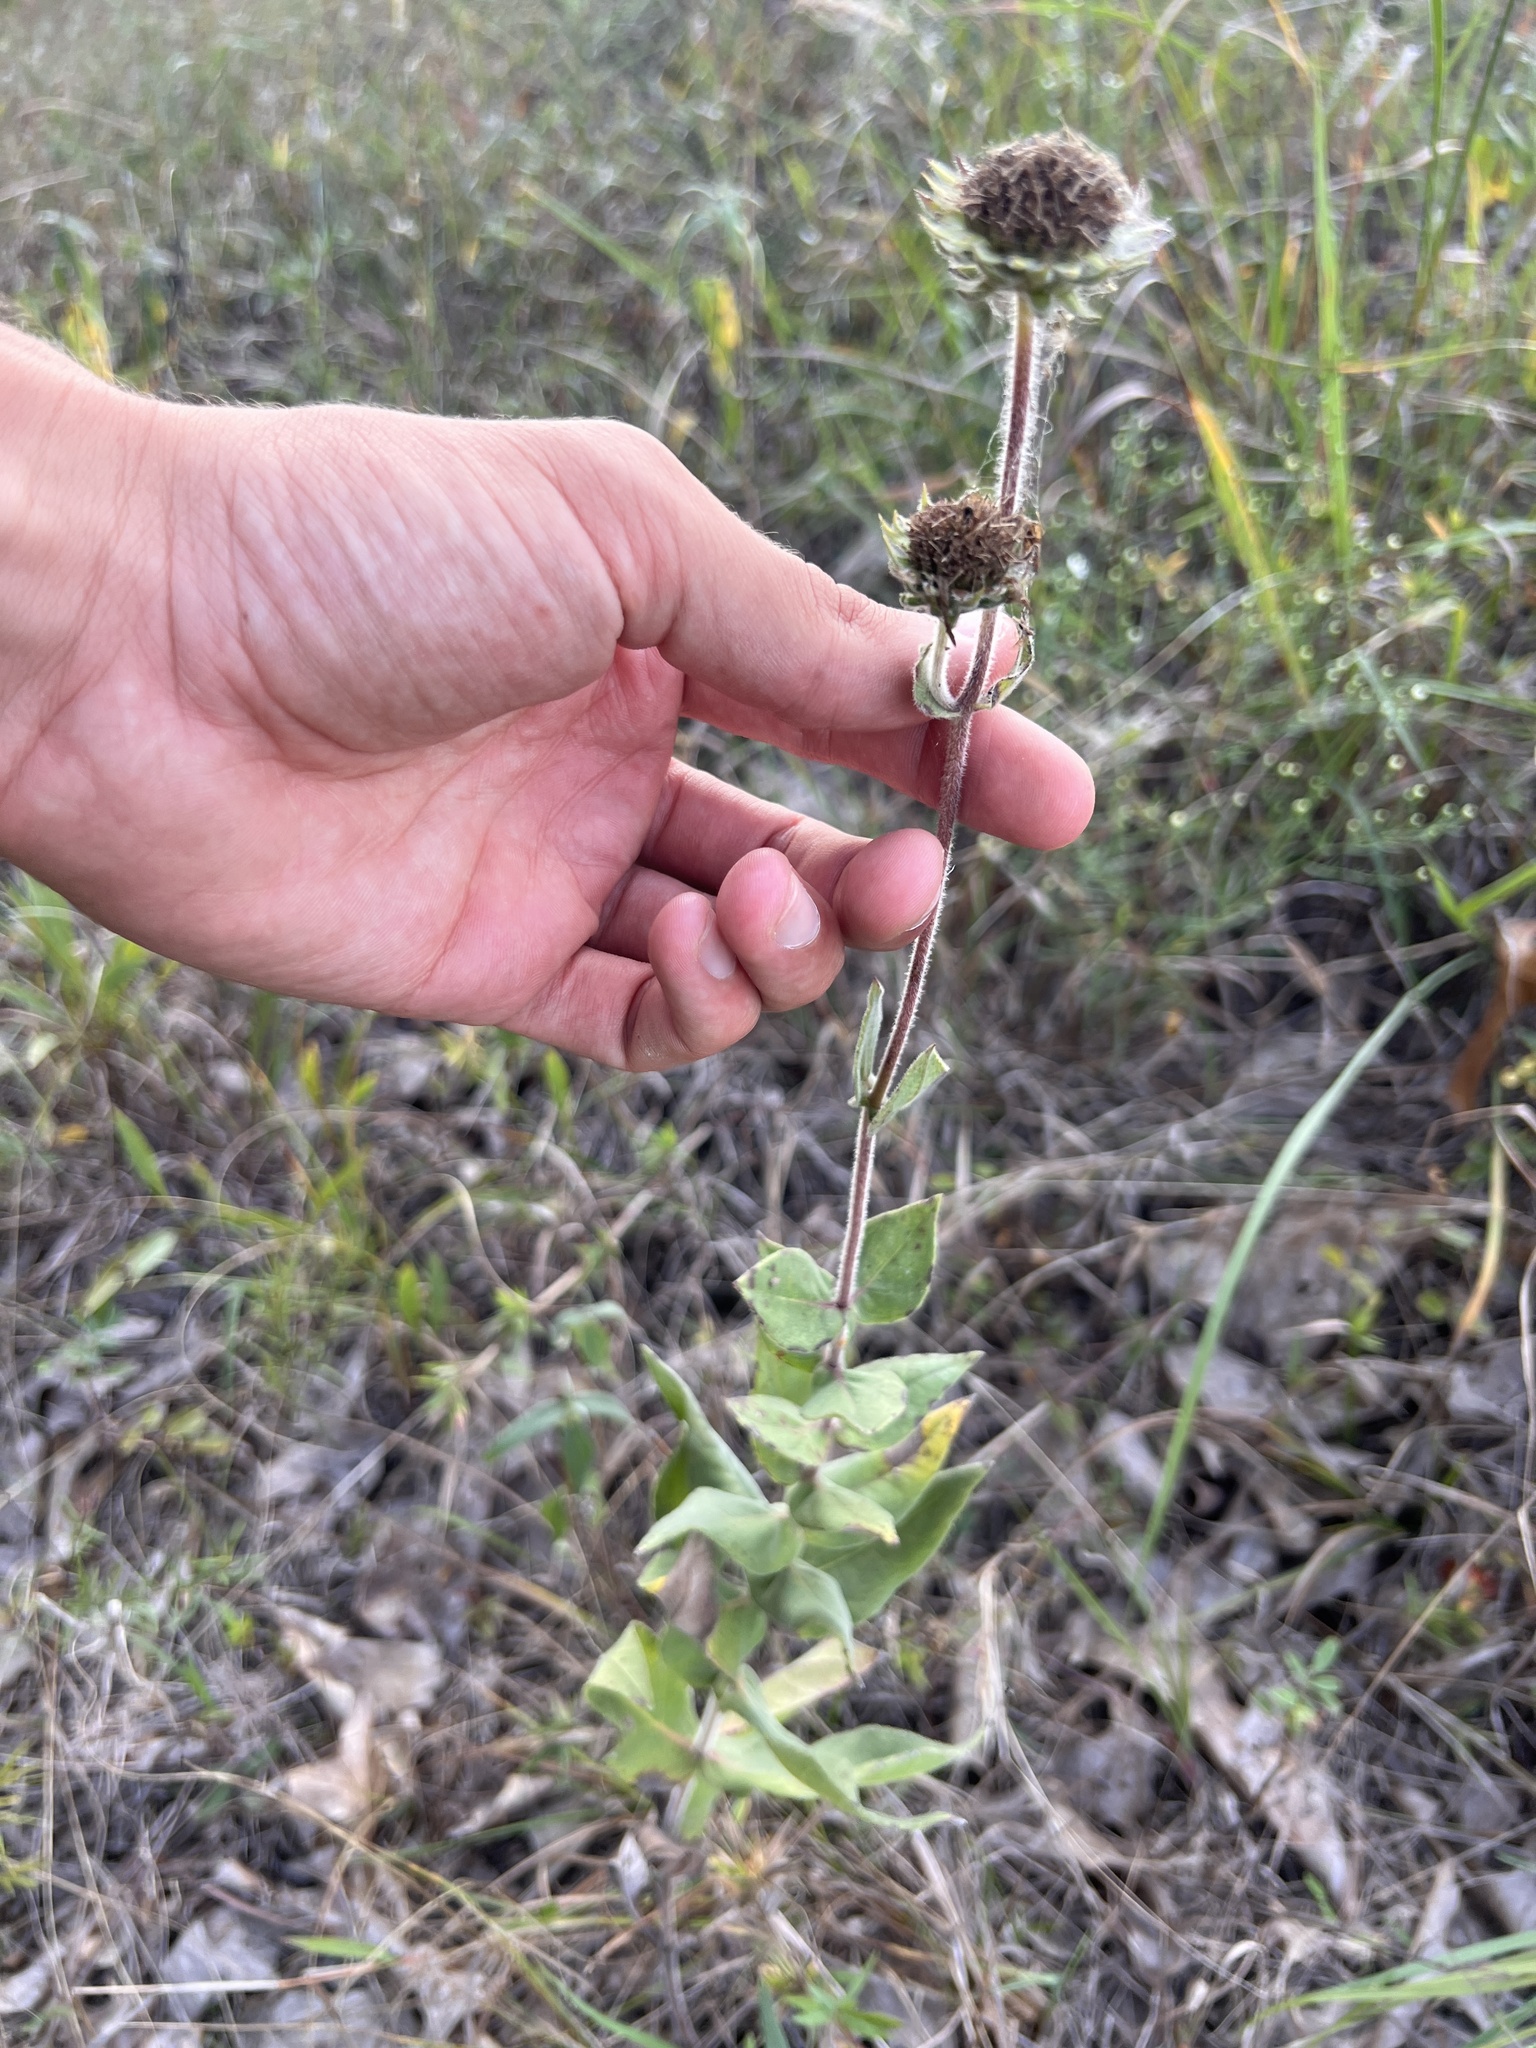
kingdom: Plantae
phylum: Tracheophyta
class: Magnoliopsida
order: Asterales
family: Asteraceae
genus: Helianthus
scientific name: Helianthus mollis
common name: Ashy sunflower
